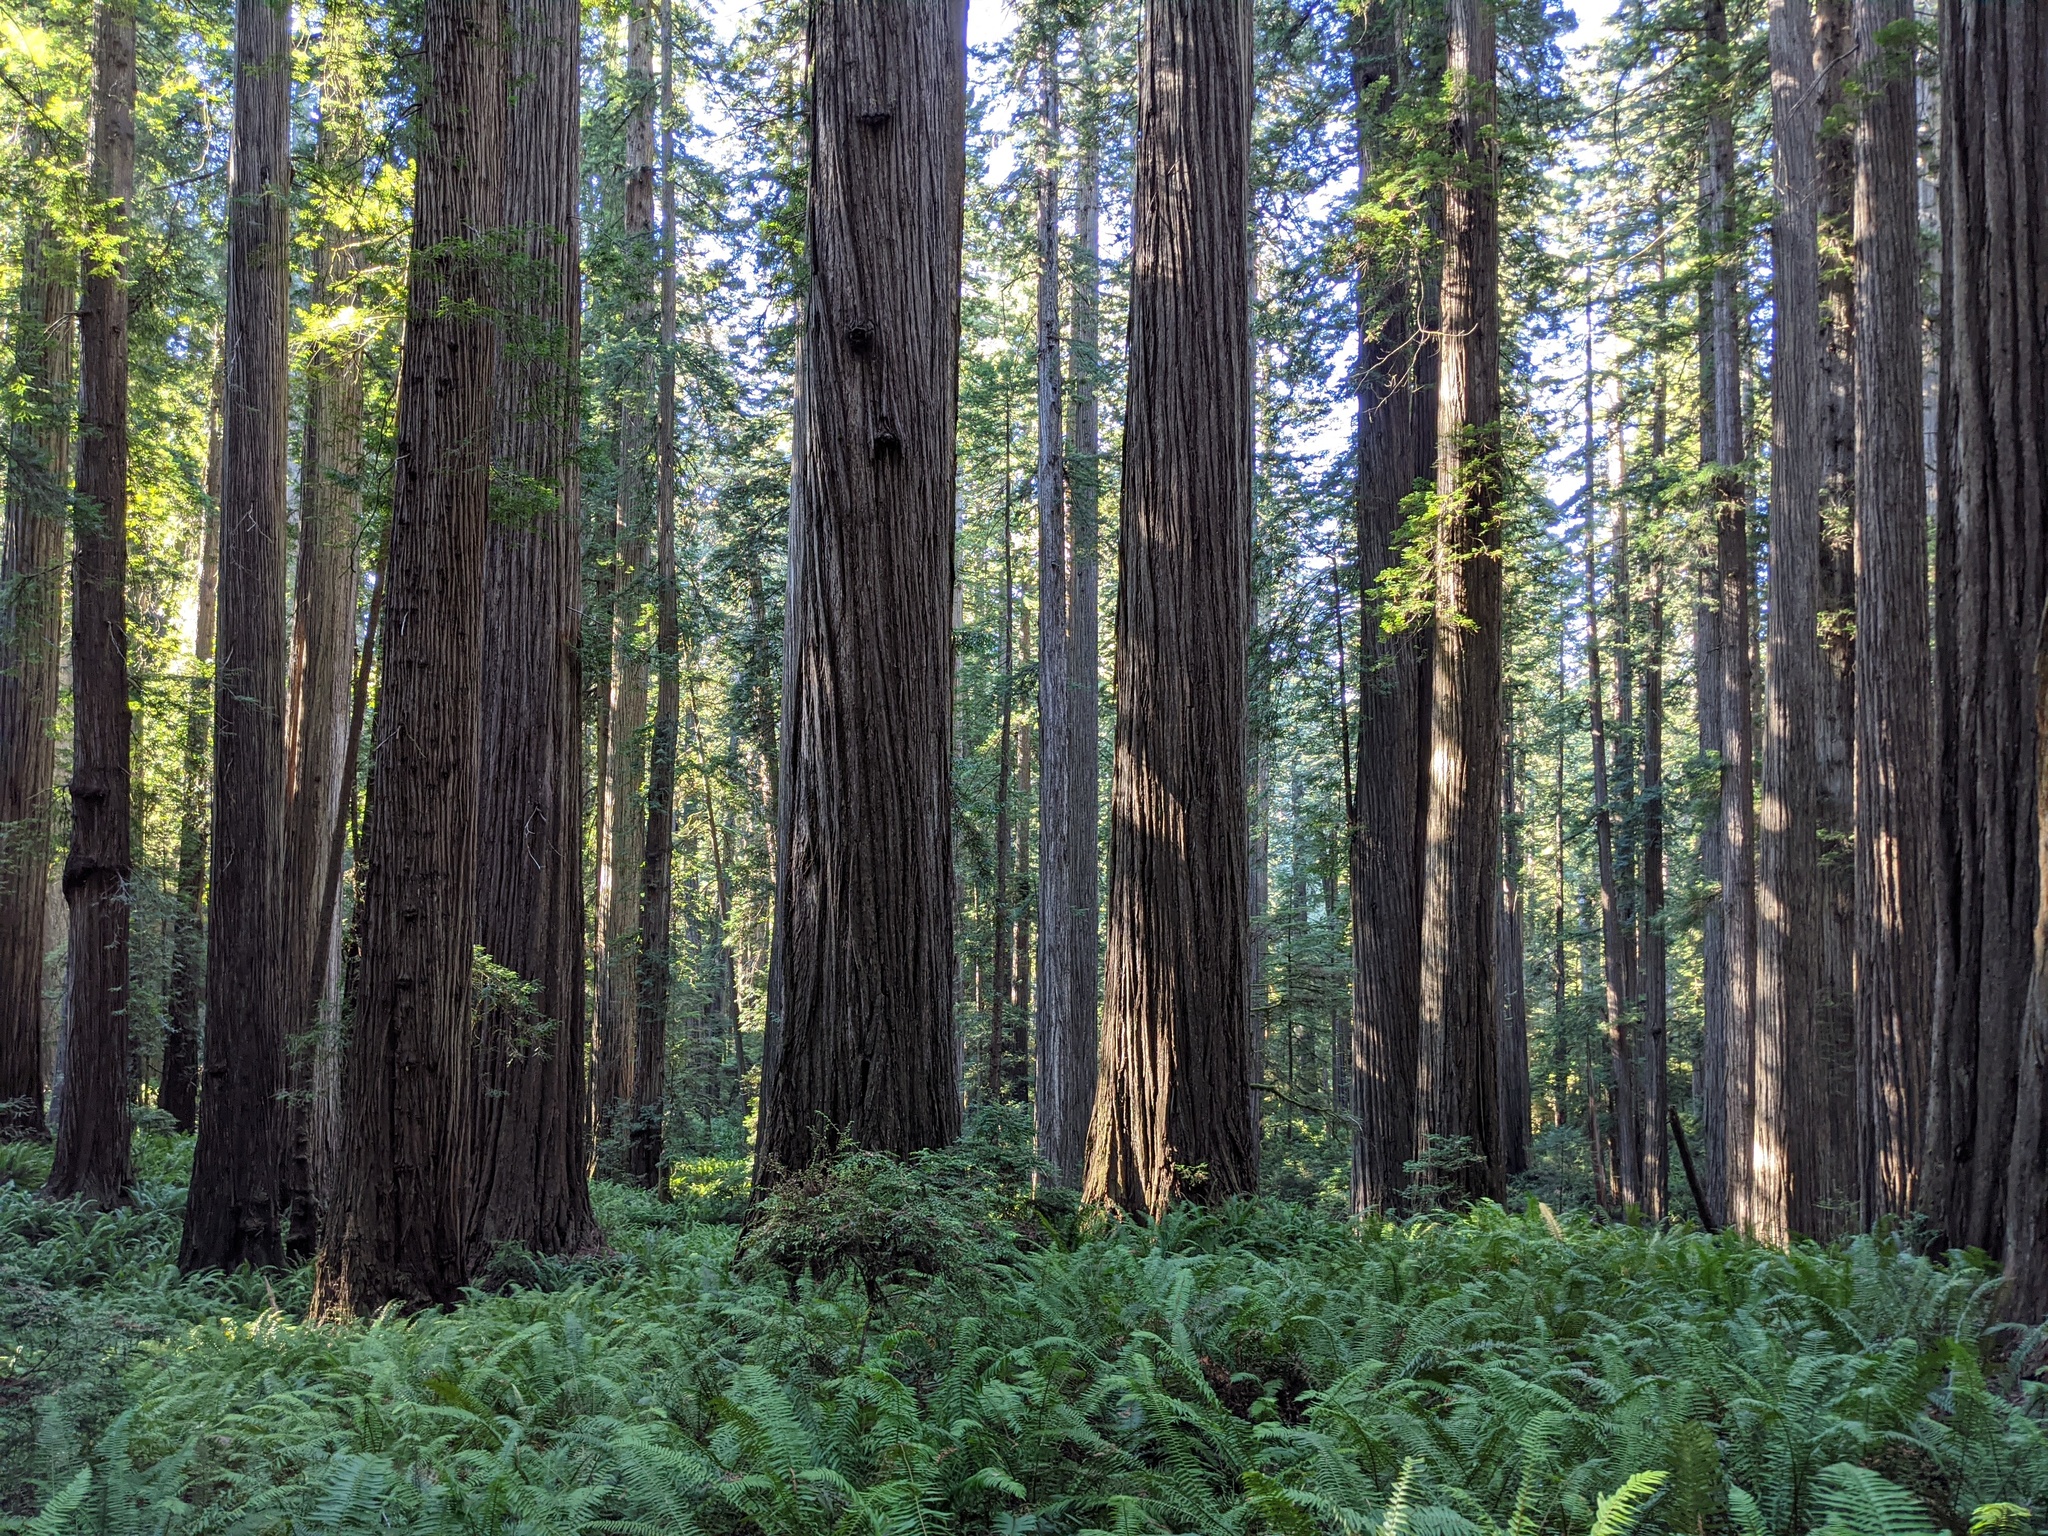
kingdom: Plantae
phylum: Tracheophyta
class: Pinopsida
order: Pinales
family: Cupressaceae
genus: Sequoia
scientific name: Sequoia sempervirens
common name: Coast redwood
